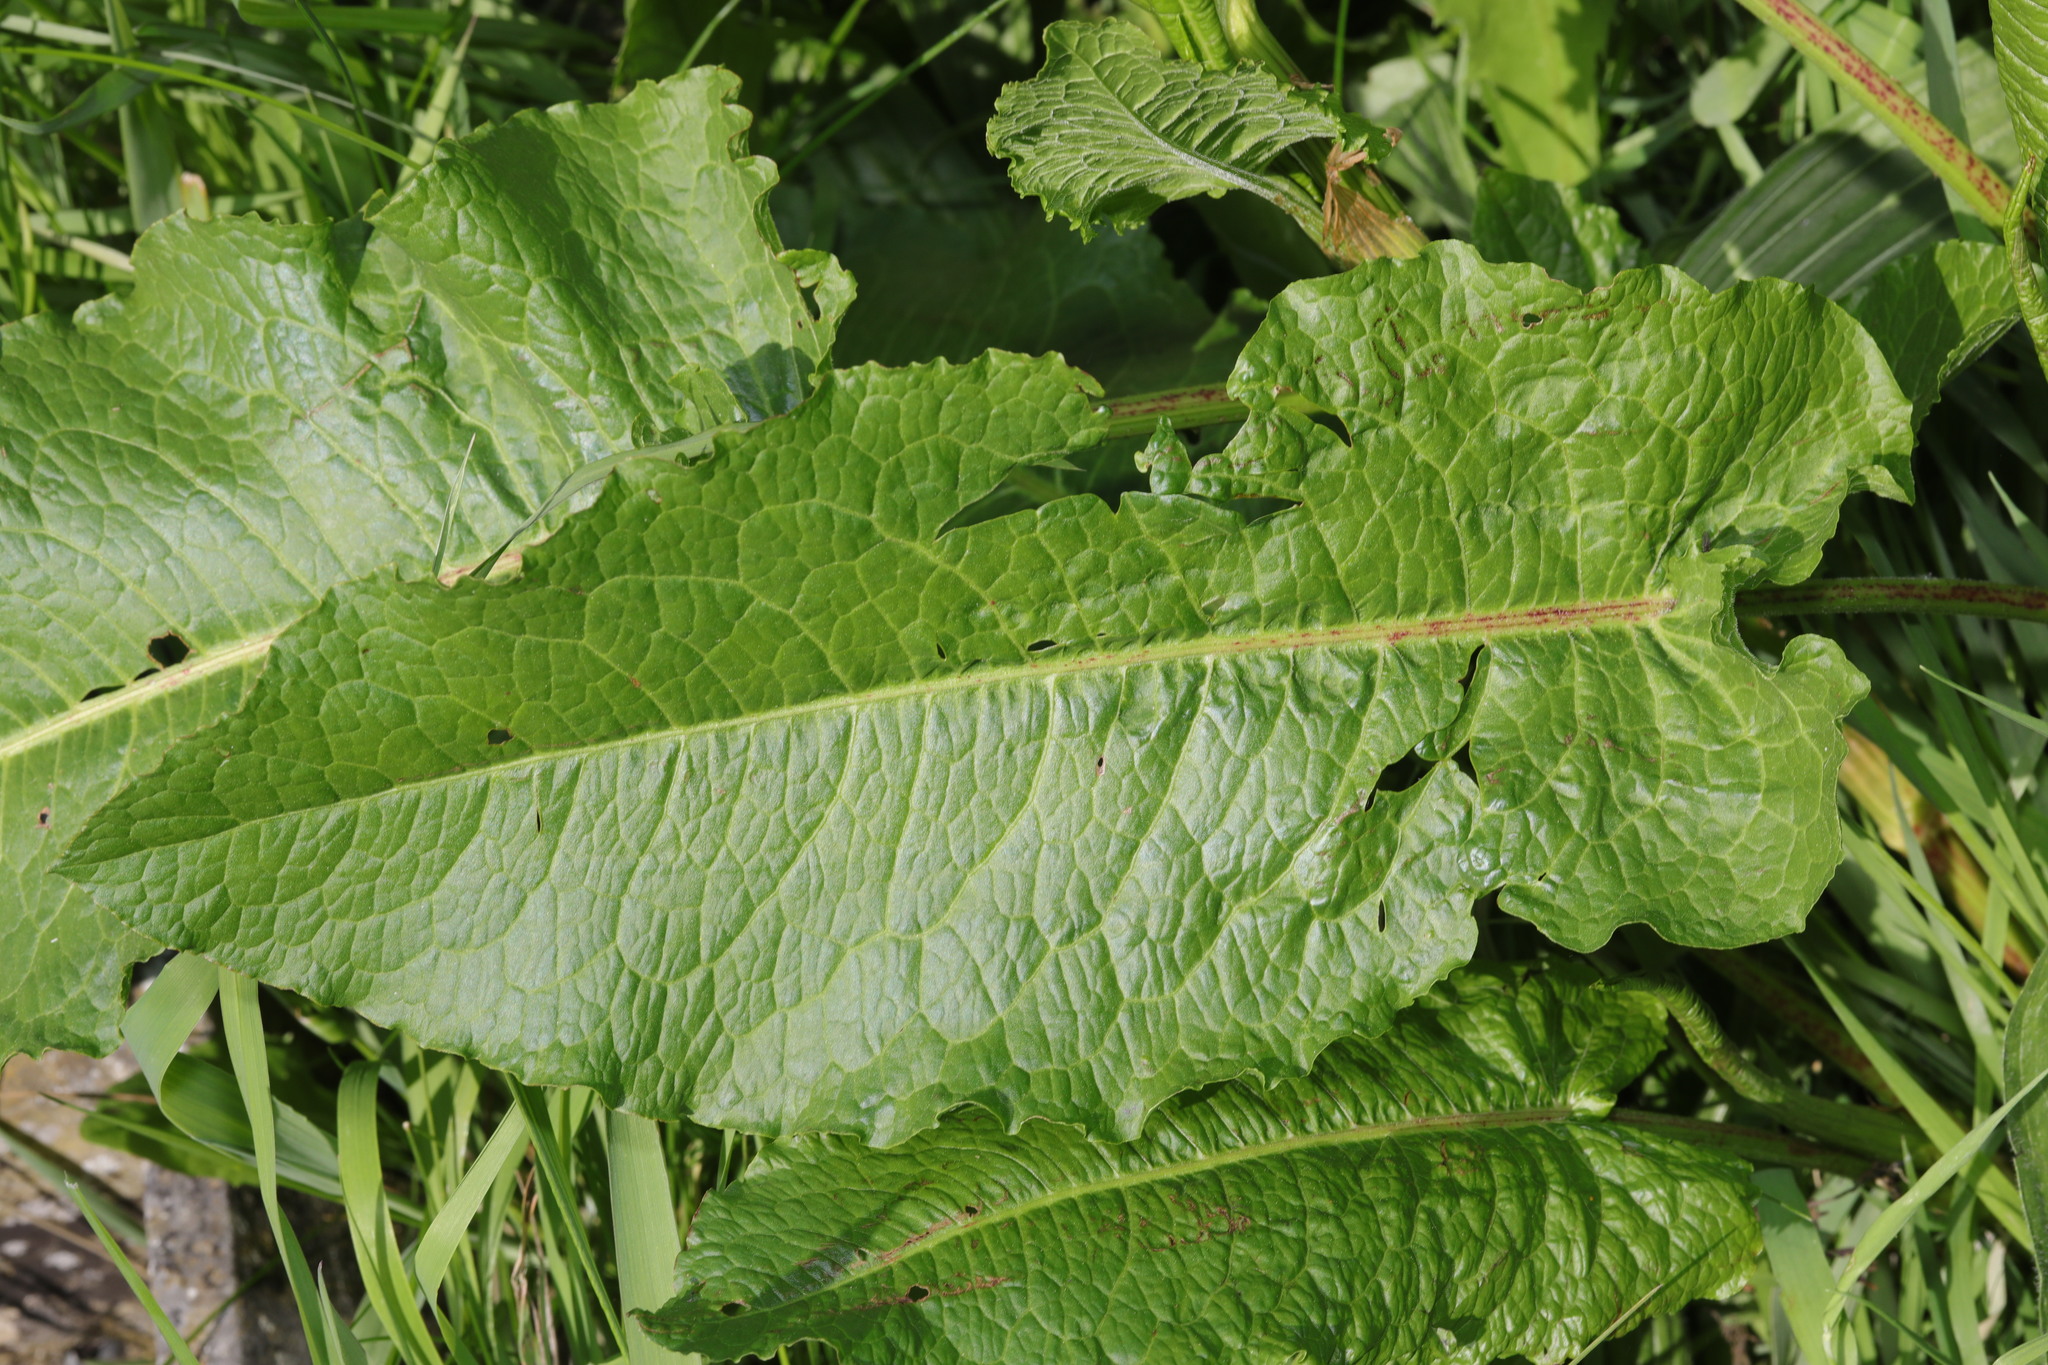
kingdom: Plantae
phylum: Tracheophyta
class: Magnoliopsida
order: Caryophyllales
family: Polygonaceae
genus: Rumex
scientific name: Rumex obtusifolius
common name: Bitter dock
